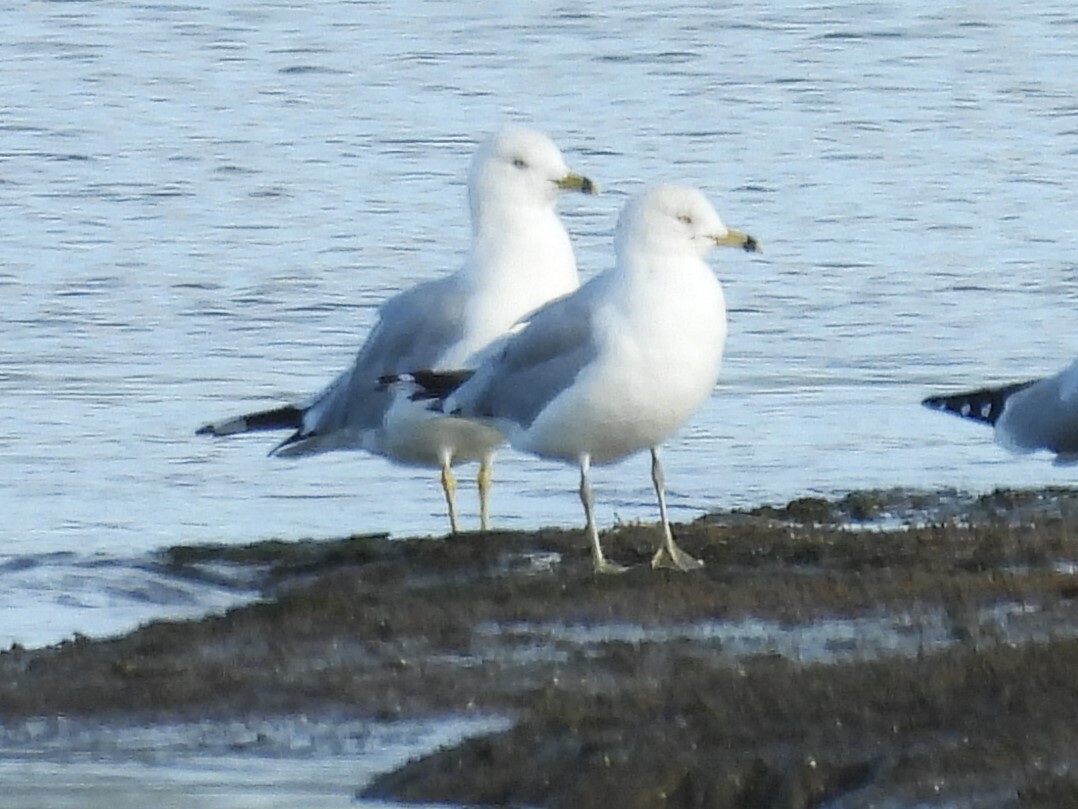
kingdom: Animalia
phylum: Chordata
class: Aves
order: Charadriiformes
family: Laridae
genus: Larus
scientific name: Larus delawarensis
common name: Ring-billed gull
